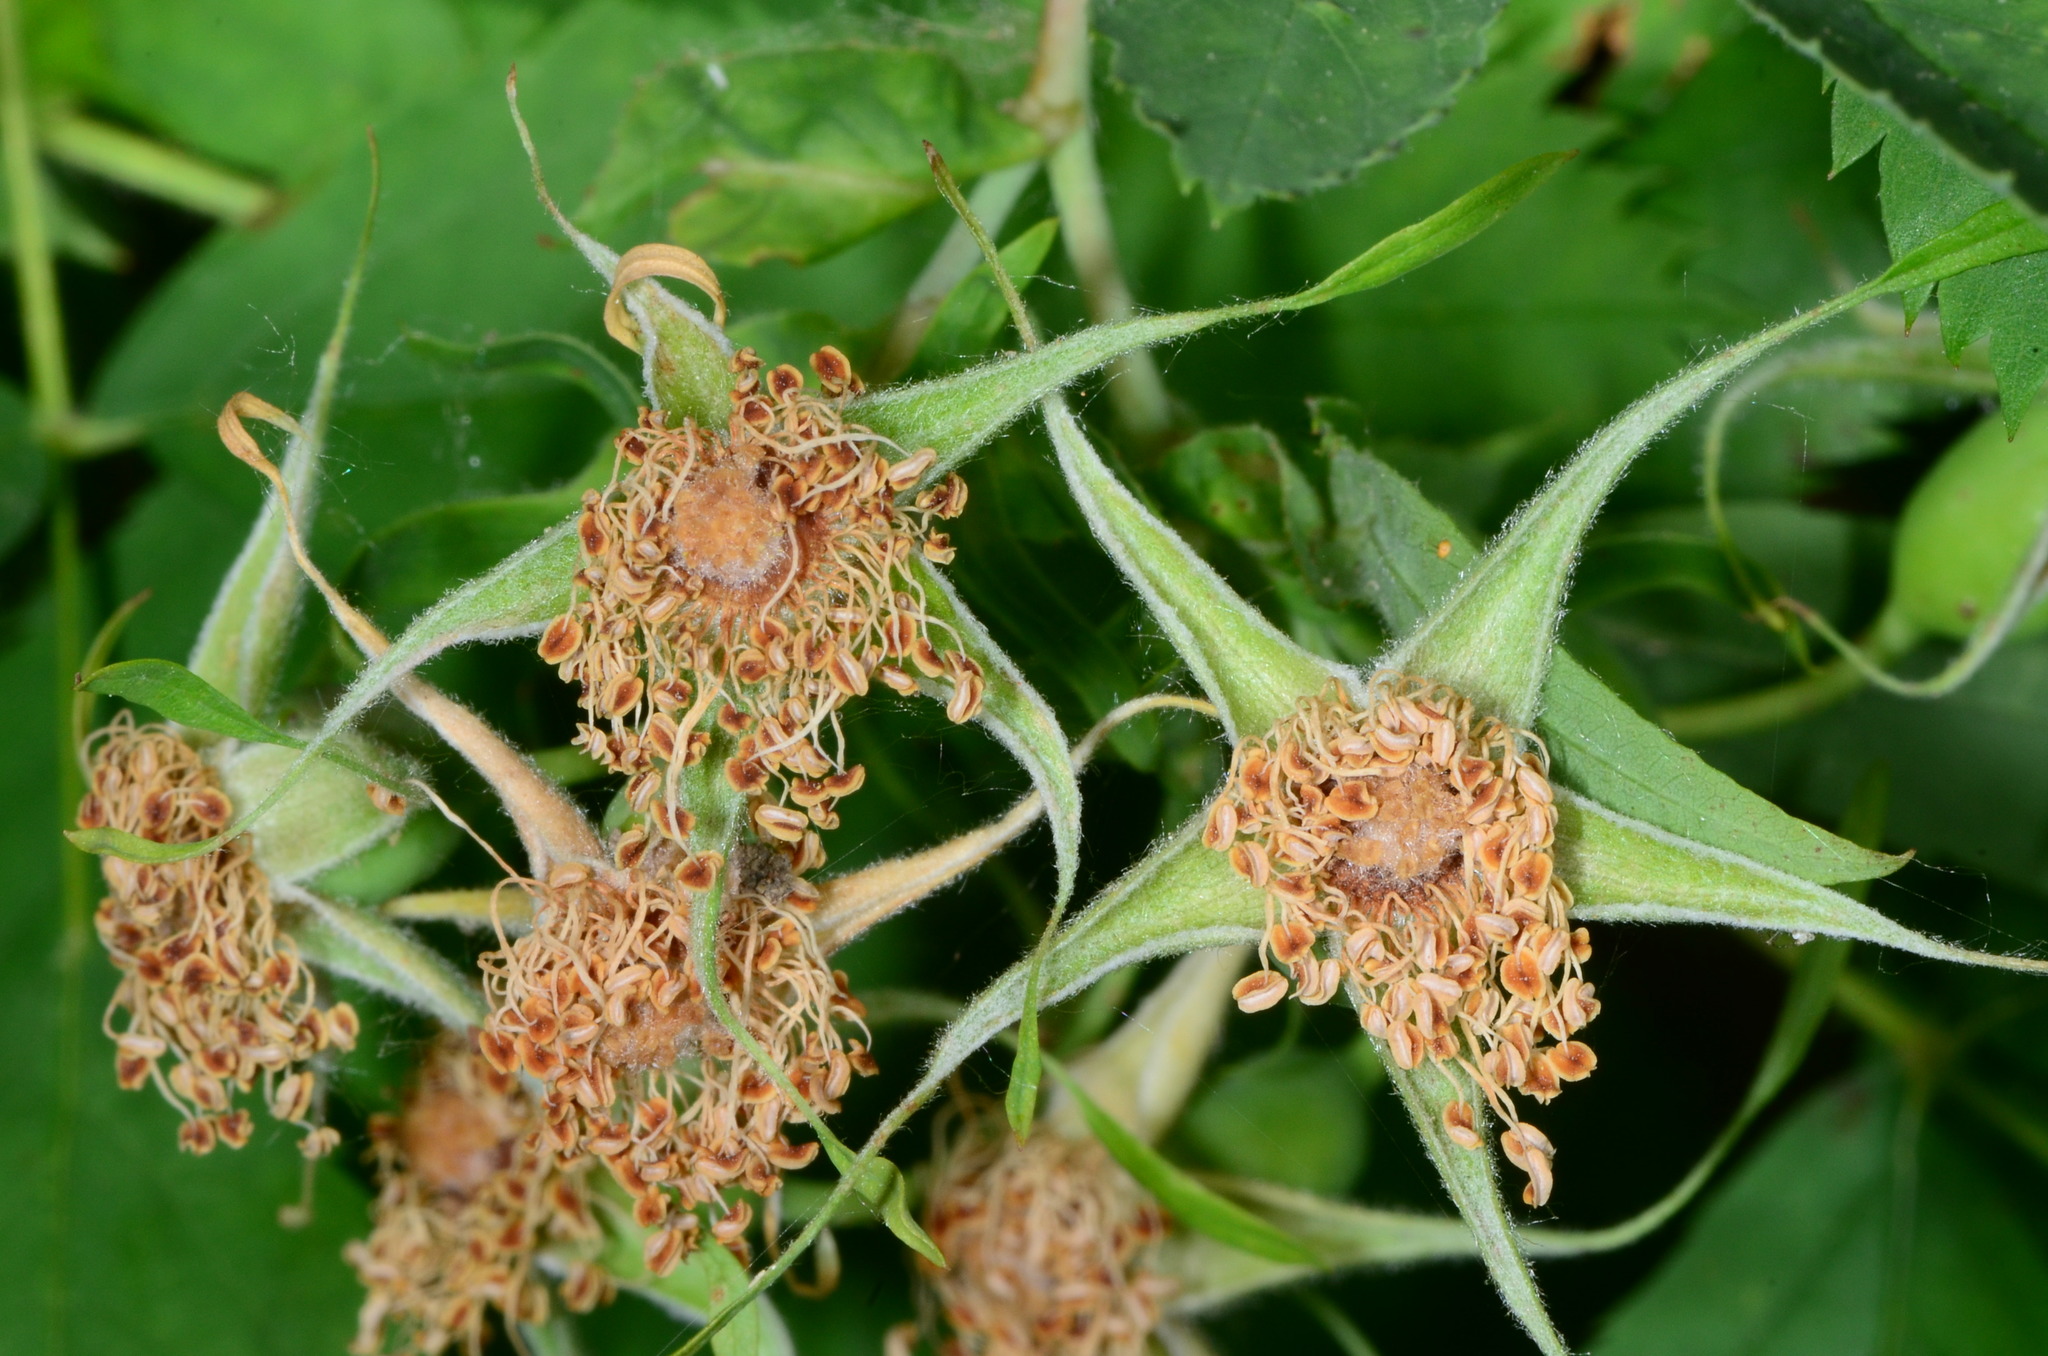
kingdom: Plantae
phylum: Tracheophyta
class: Magnoliopsida
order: Rosales
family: Rosaceae
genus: Rosa
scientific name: Rosa californica
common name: California rose
